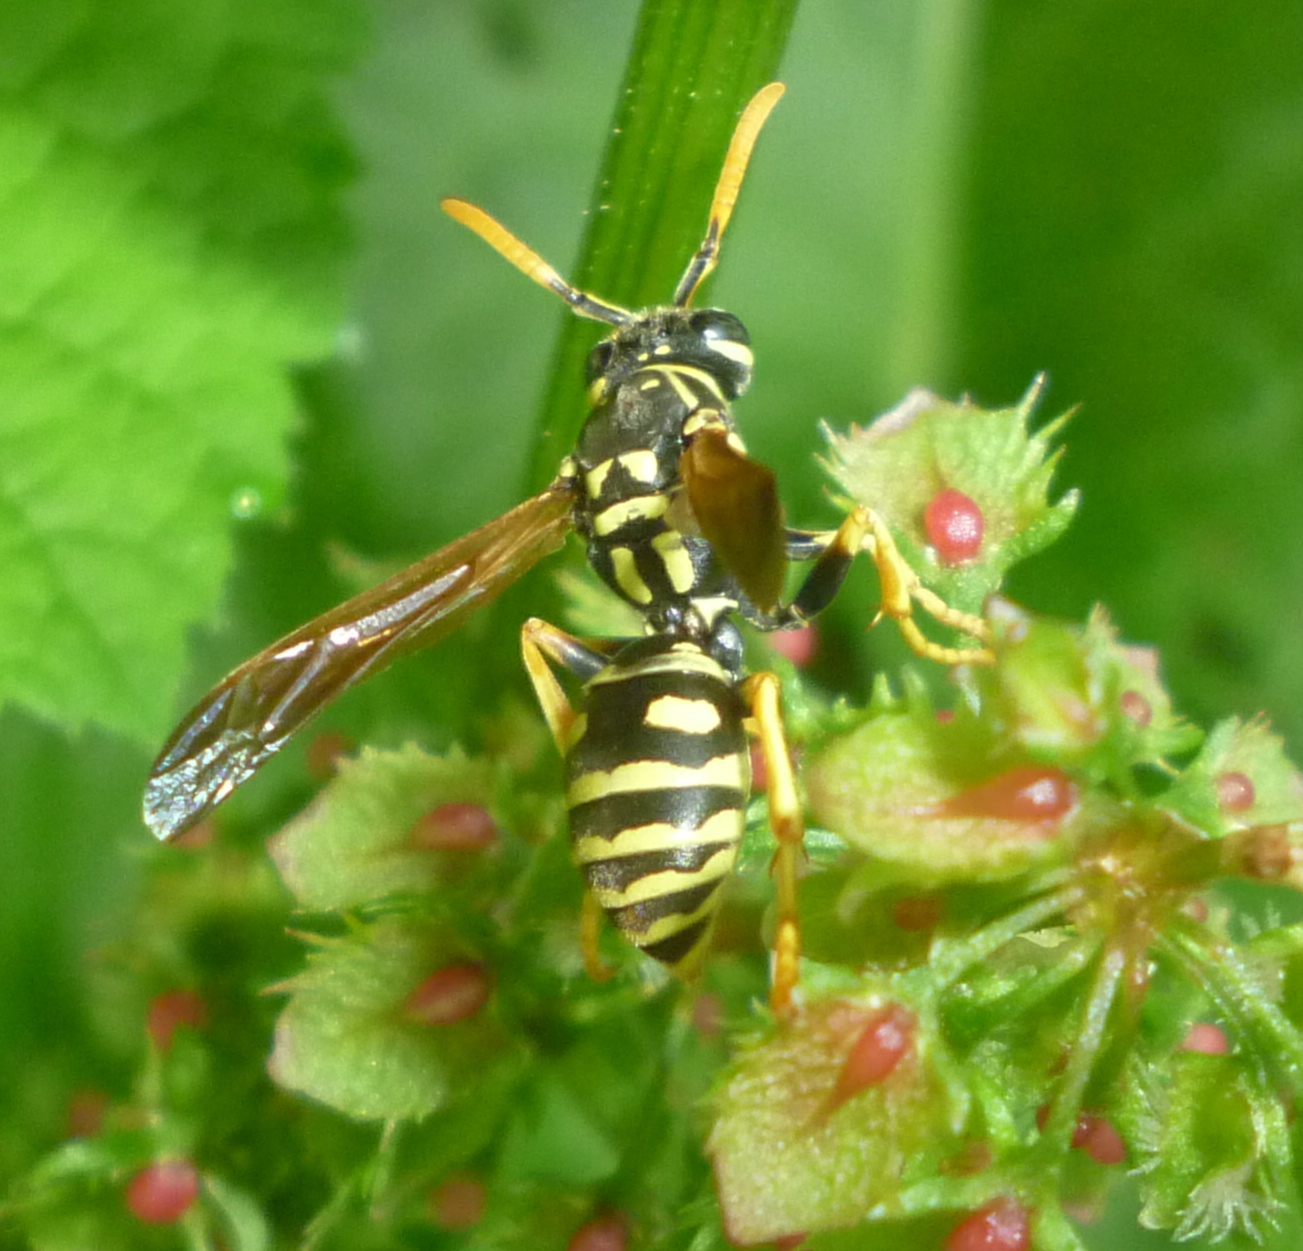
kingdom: Animalia
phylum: Arthropoda
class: Insecta
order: Hymenoptera
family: Eumenidae
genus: Polistes
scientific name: Polistes dominula
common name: Paper wasp
